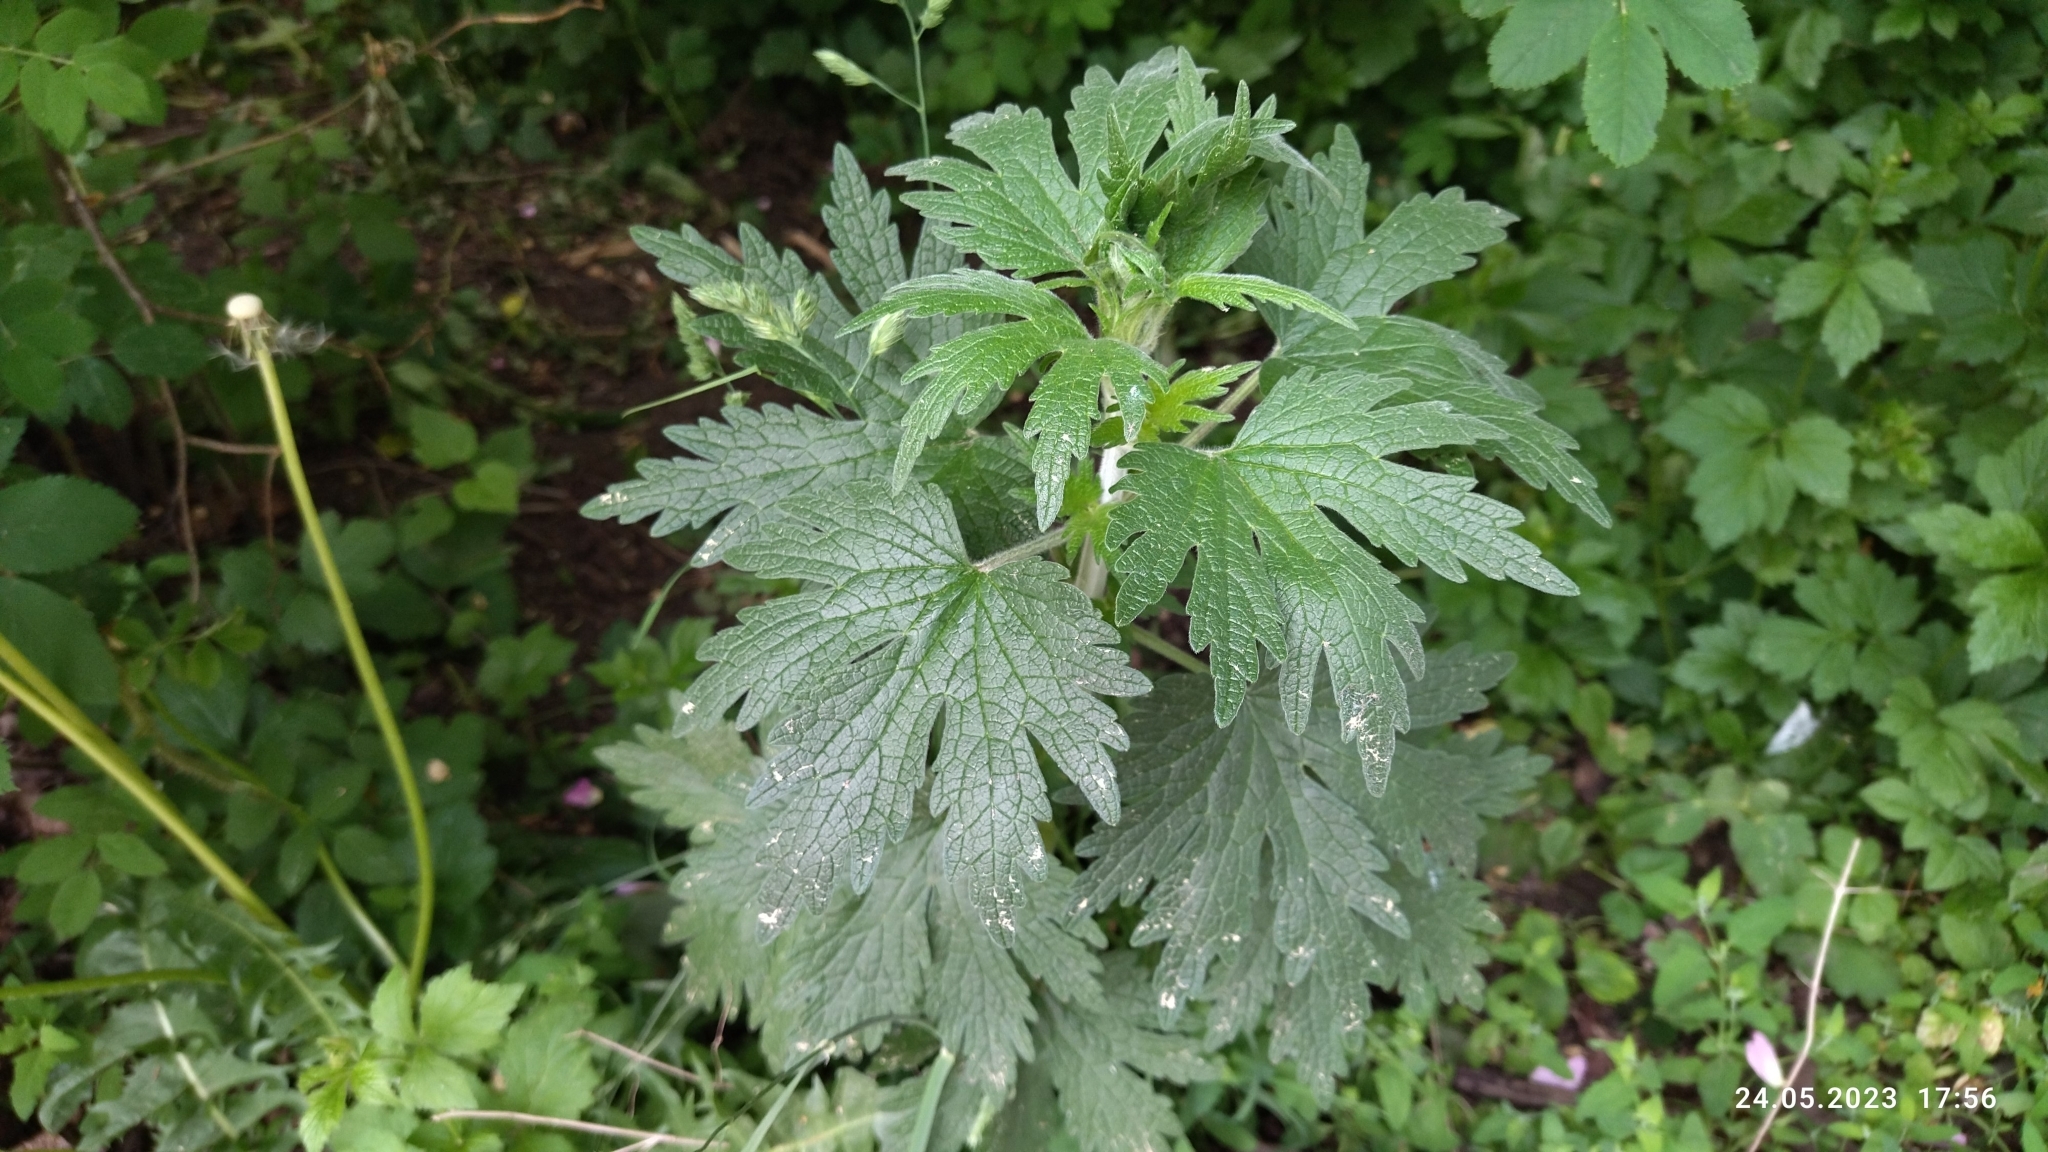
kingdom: Plantae
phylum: Tracheophyta
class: Magnoliopsida
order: Lamiales
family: Lamiaceae
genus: Leonurus
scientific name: Leonurus quinquelobatus
